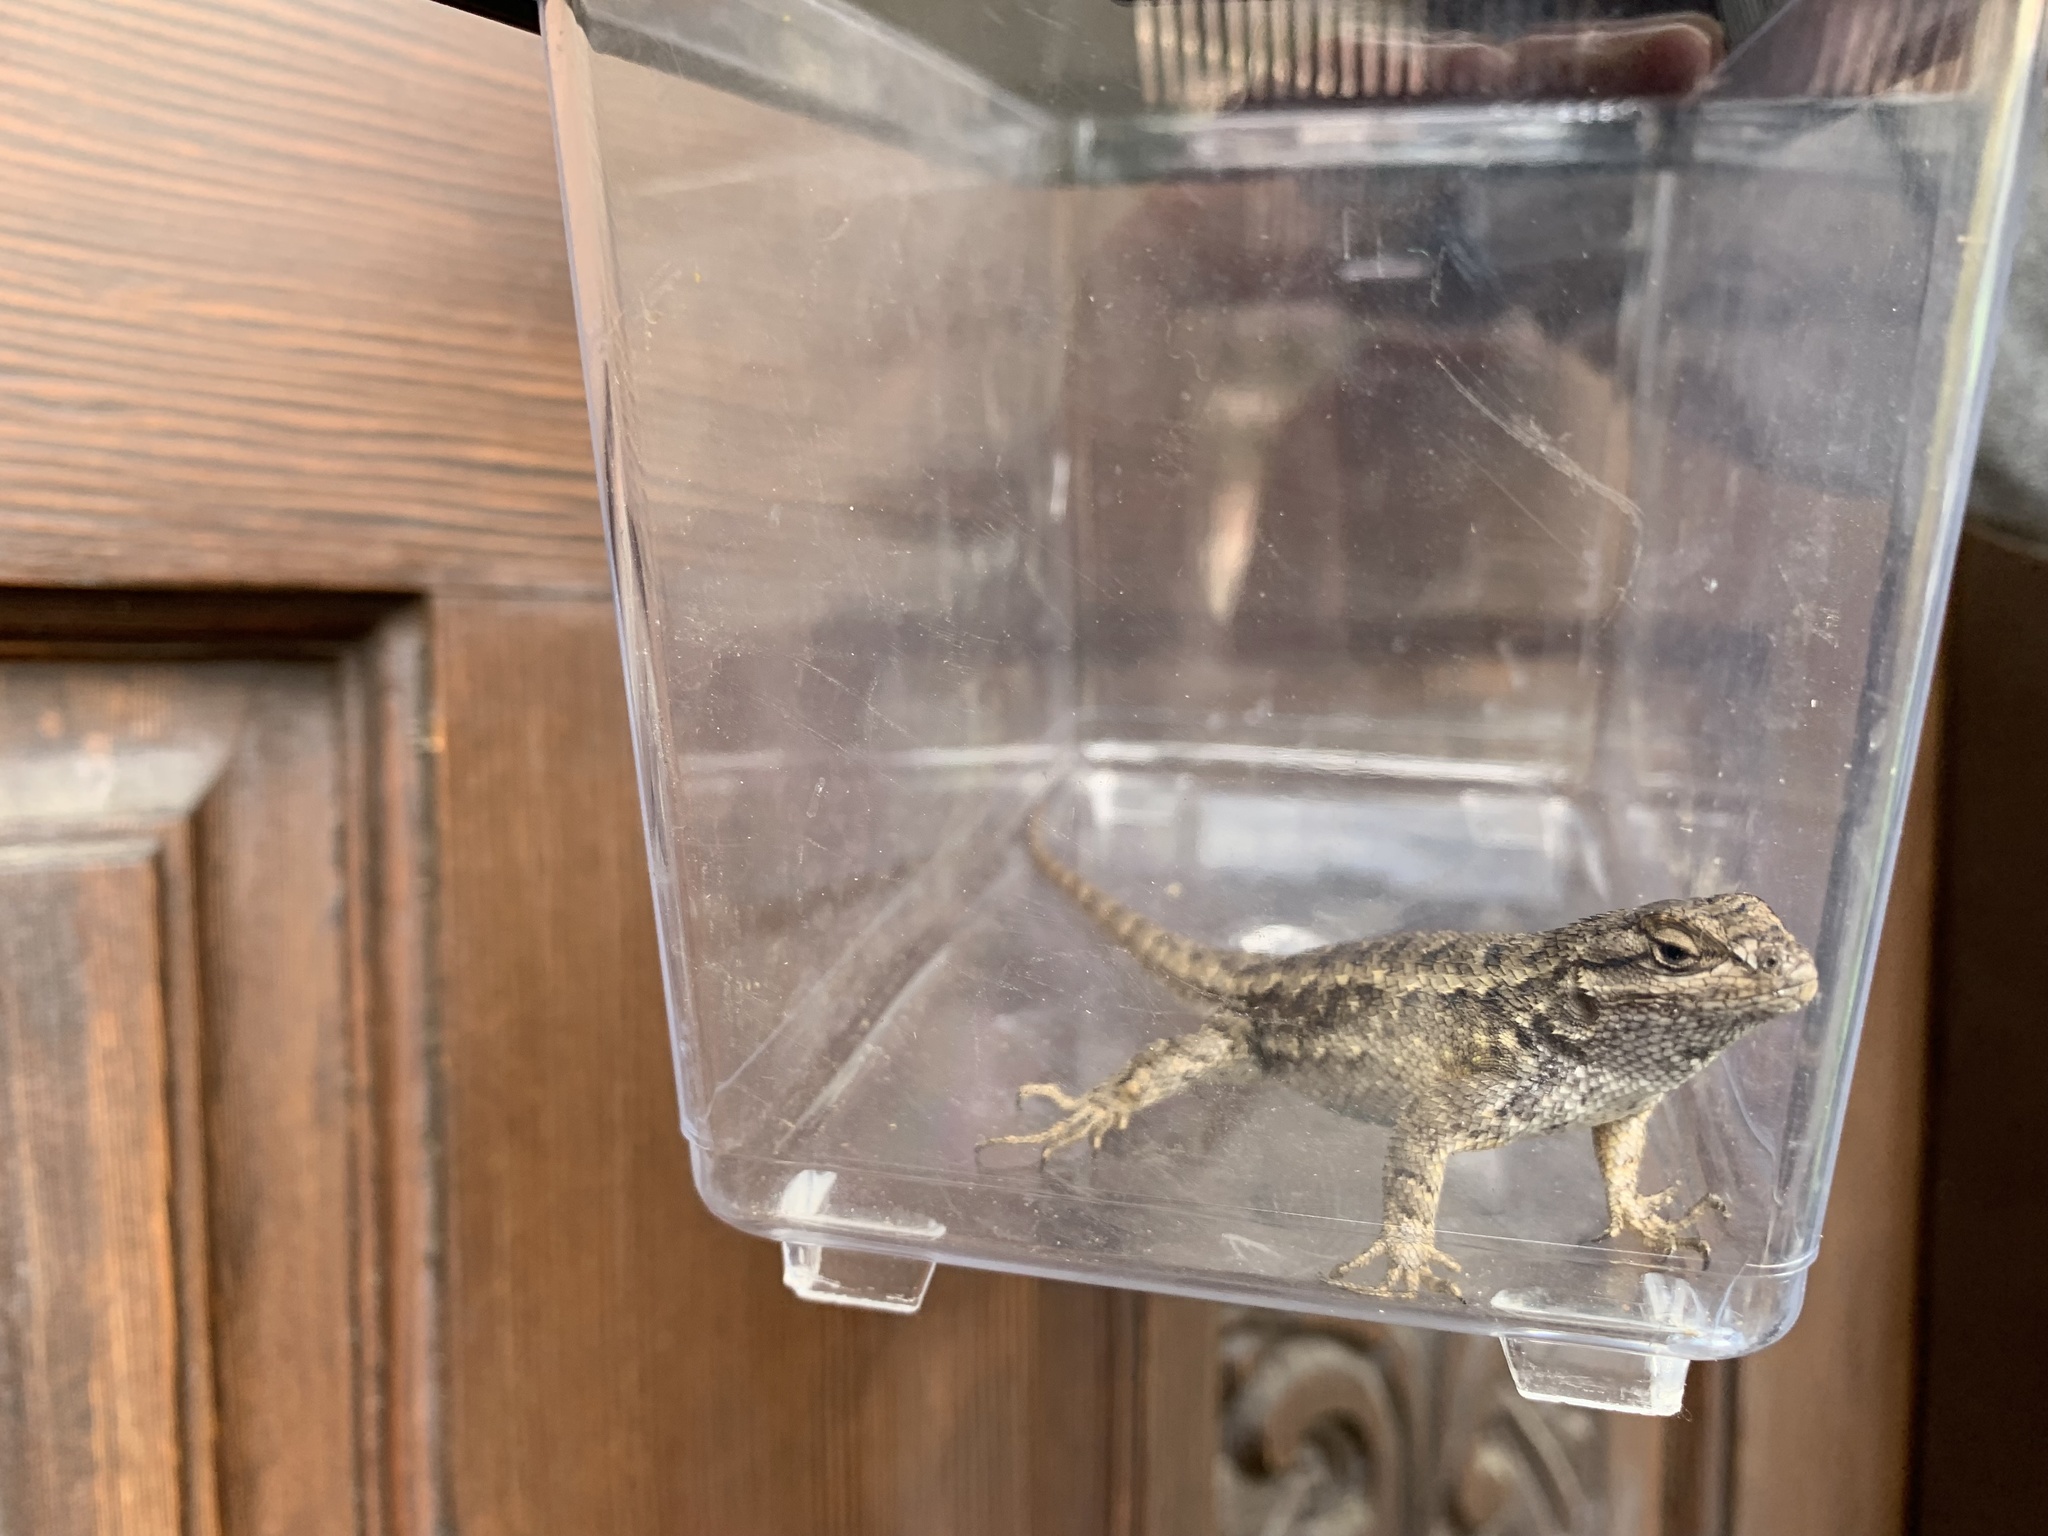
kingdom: Animalia
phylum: Chordata
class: Squamata
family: Phrynosomatidae
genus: Sceloporus
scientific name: Sceloporus occidentalis
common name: Western fence lizard
